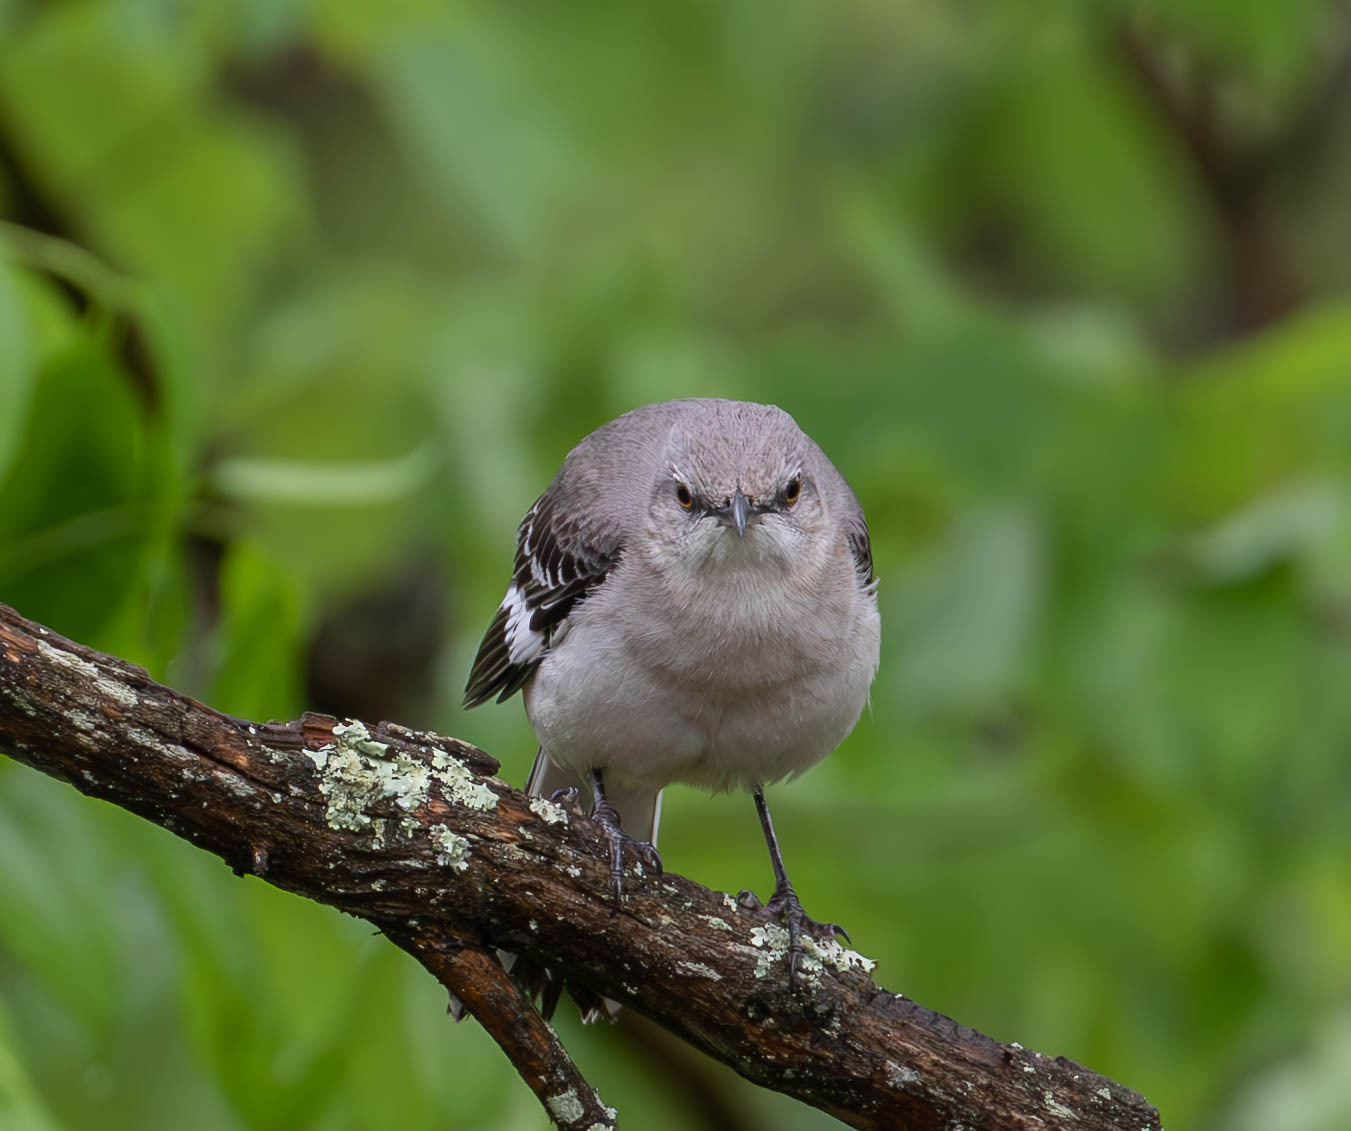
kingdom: Animalia
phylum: Chordata
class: Aves
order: Passeriformes
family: Mimidae
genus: Mimus
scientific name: Mimus polyglottos
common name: Northern mockingbird
